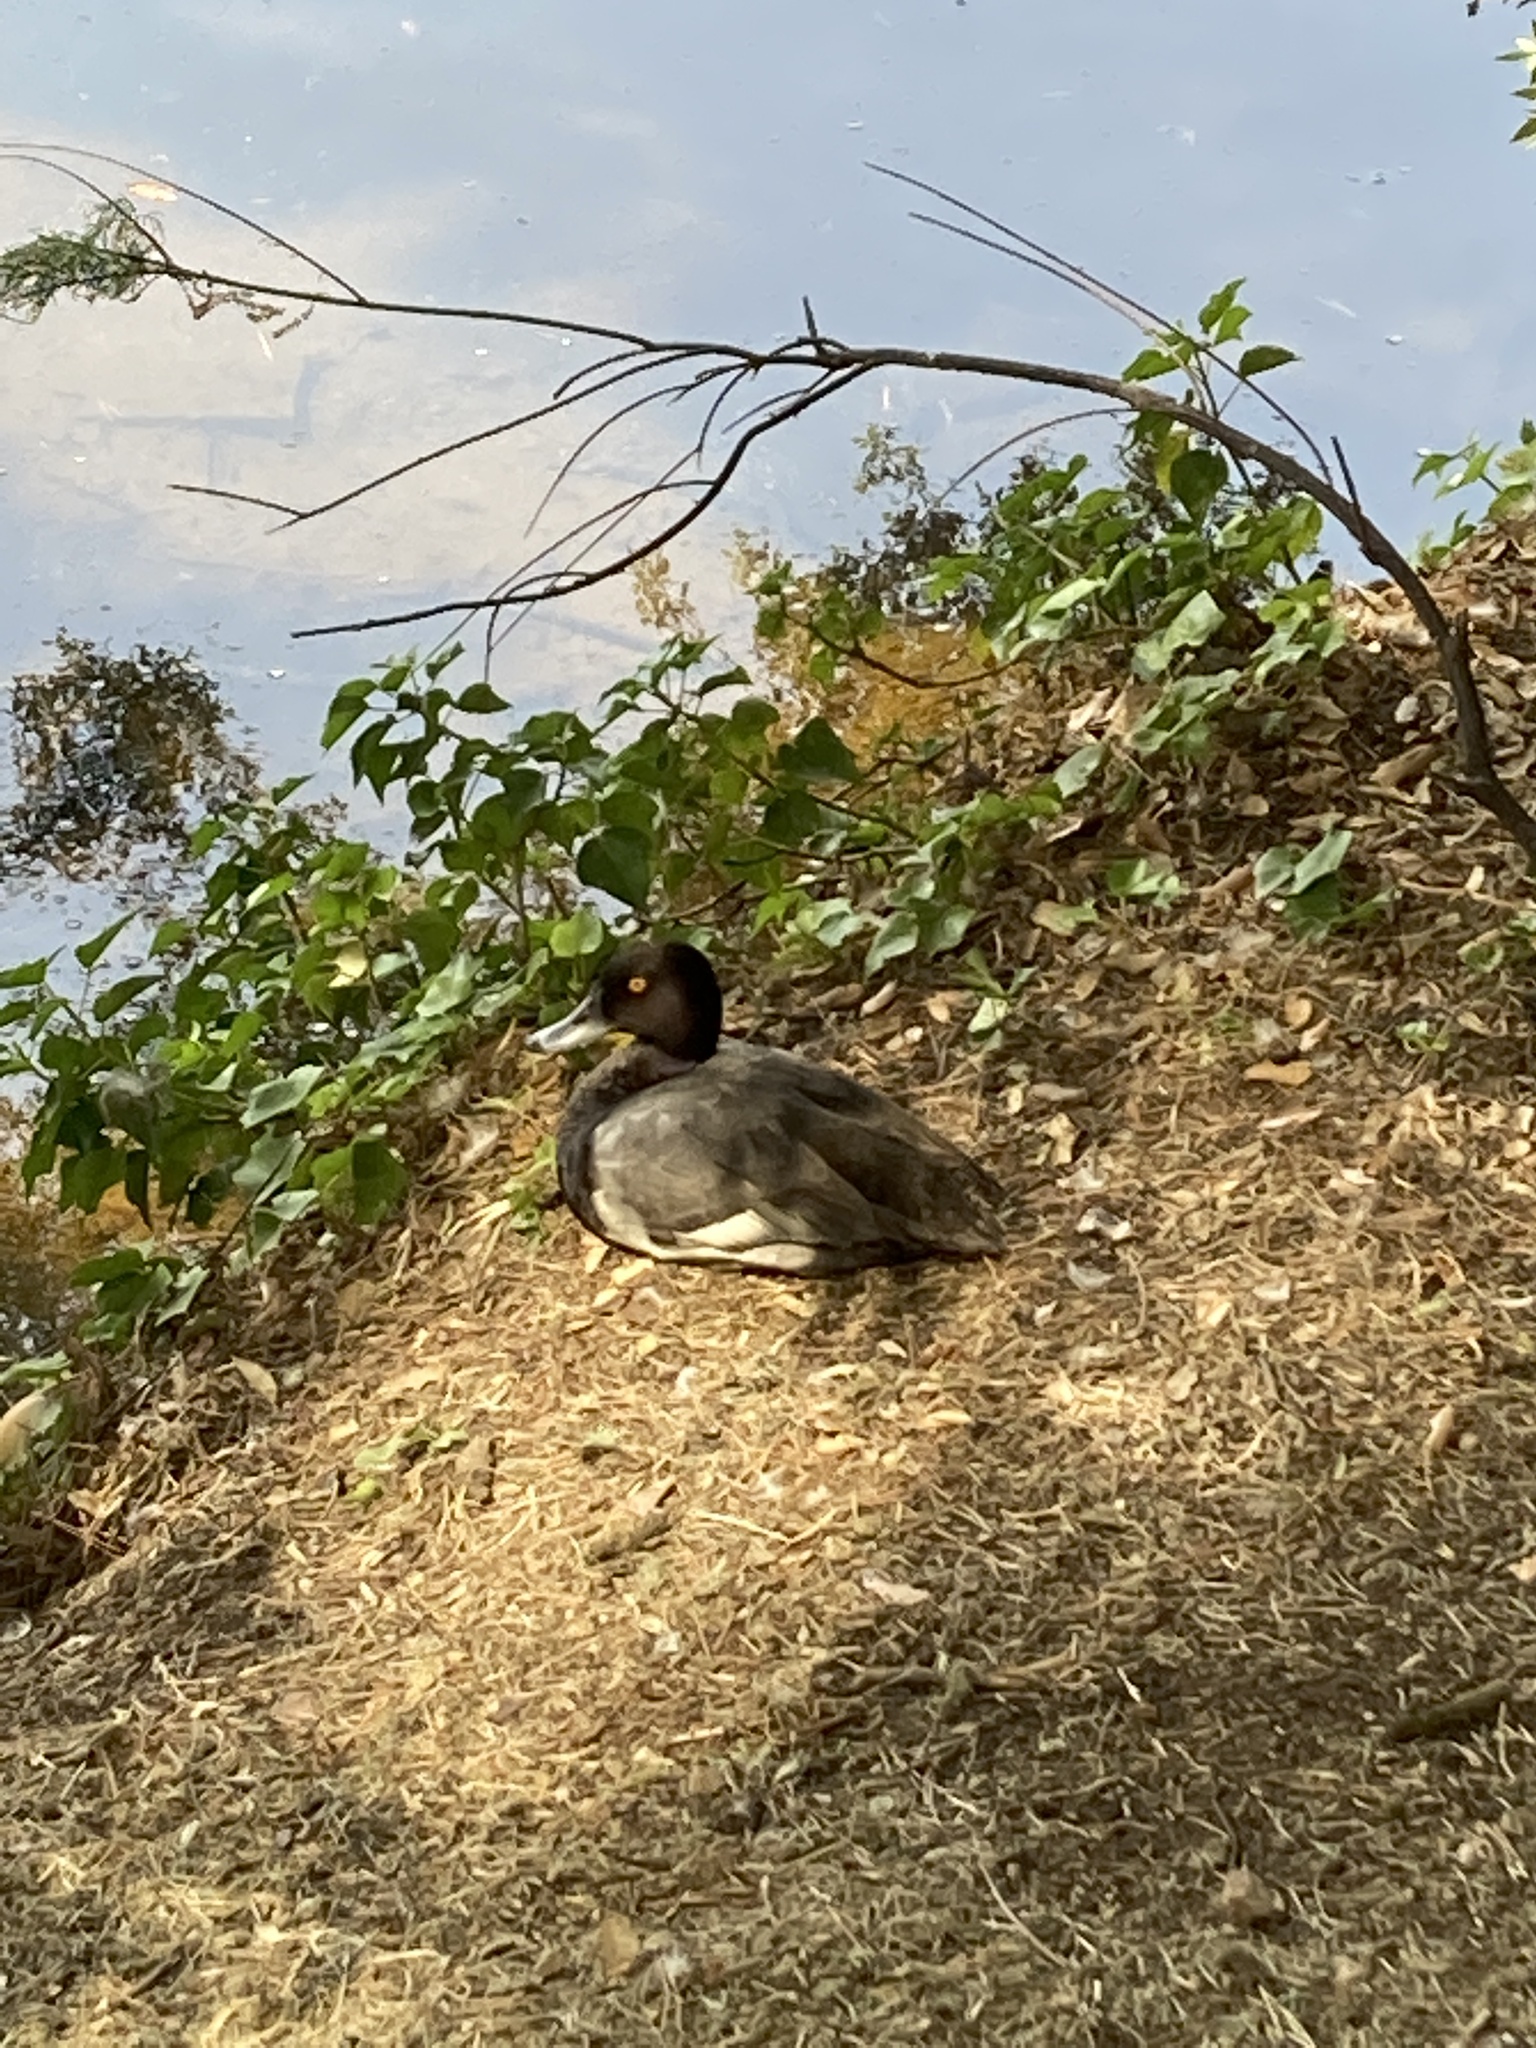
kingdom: Animalia
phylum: Chordata
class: Aves
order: Anseriformes
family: Anatidae
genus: Aythya
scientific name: Aythya
